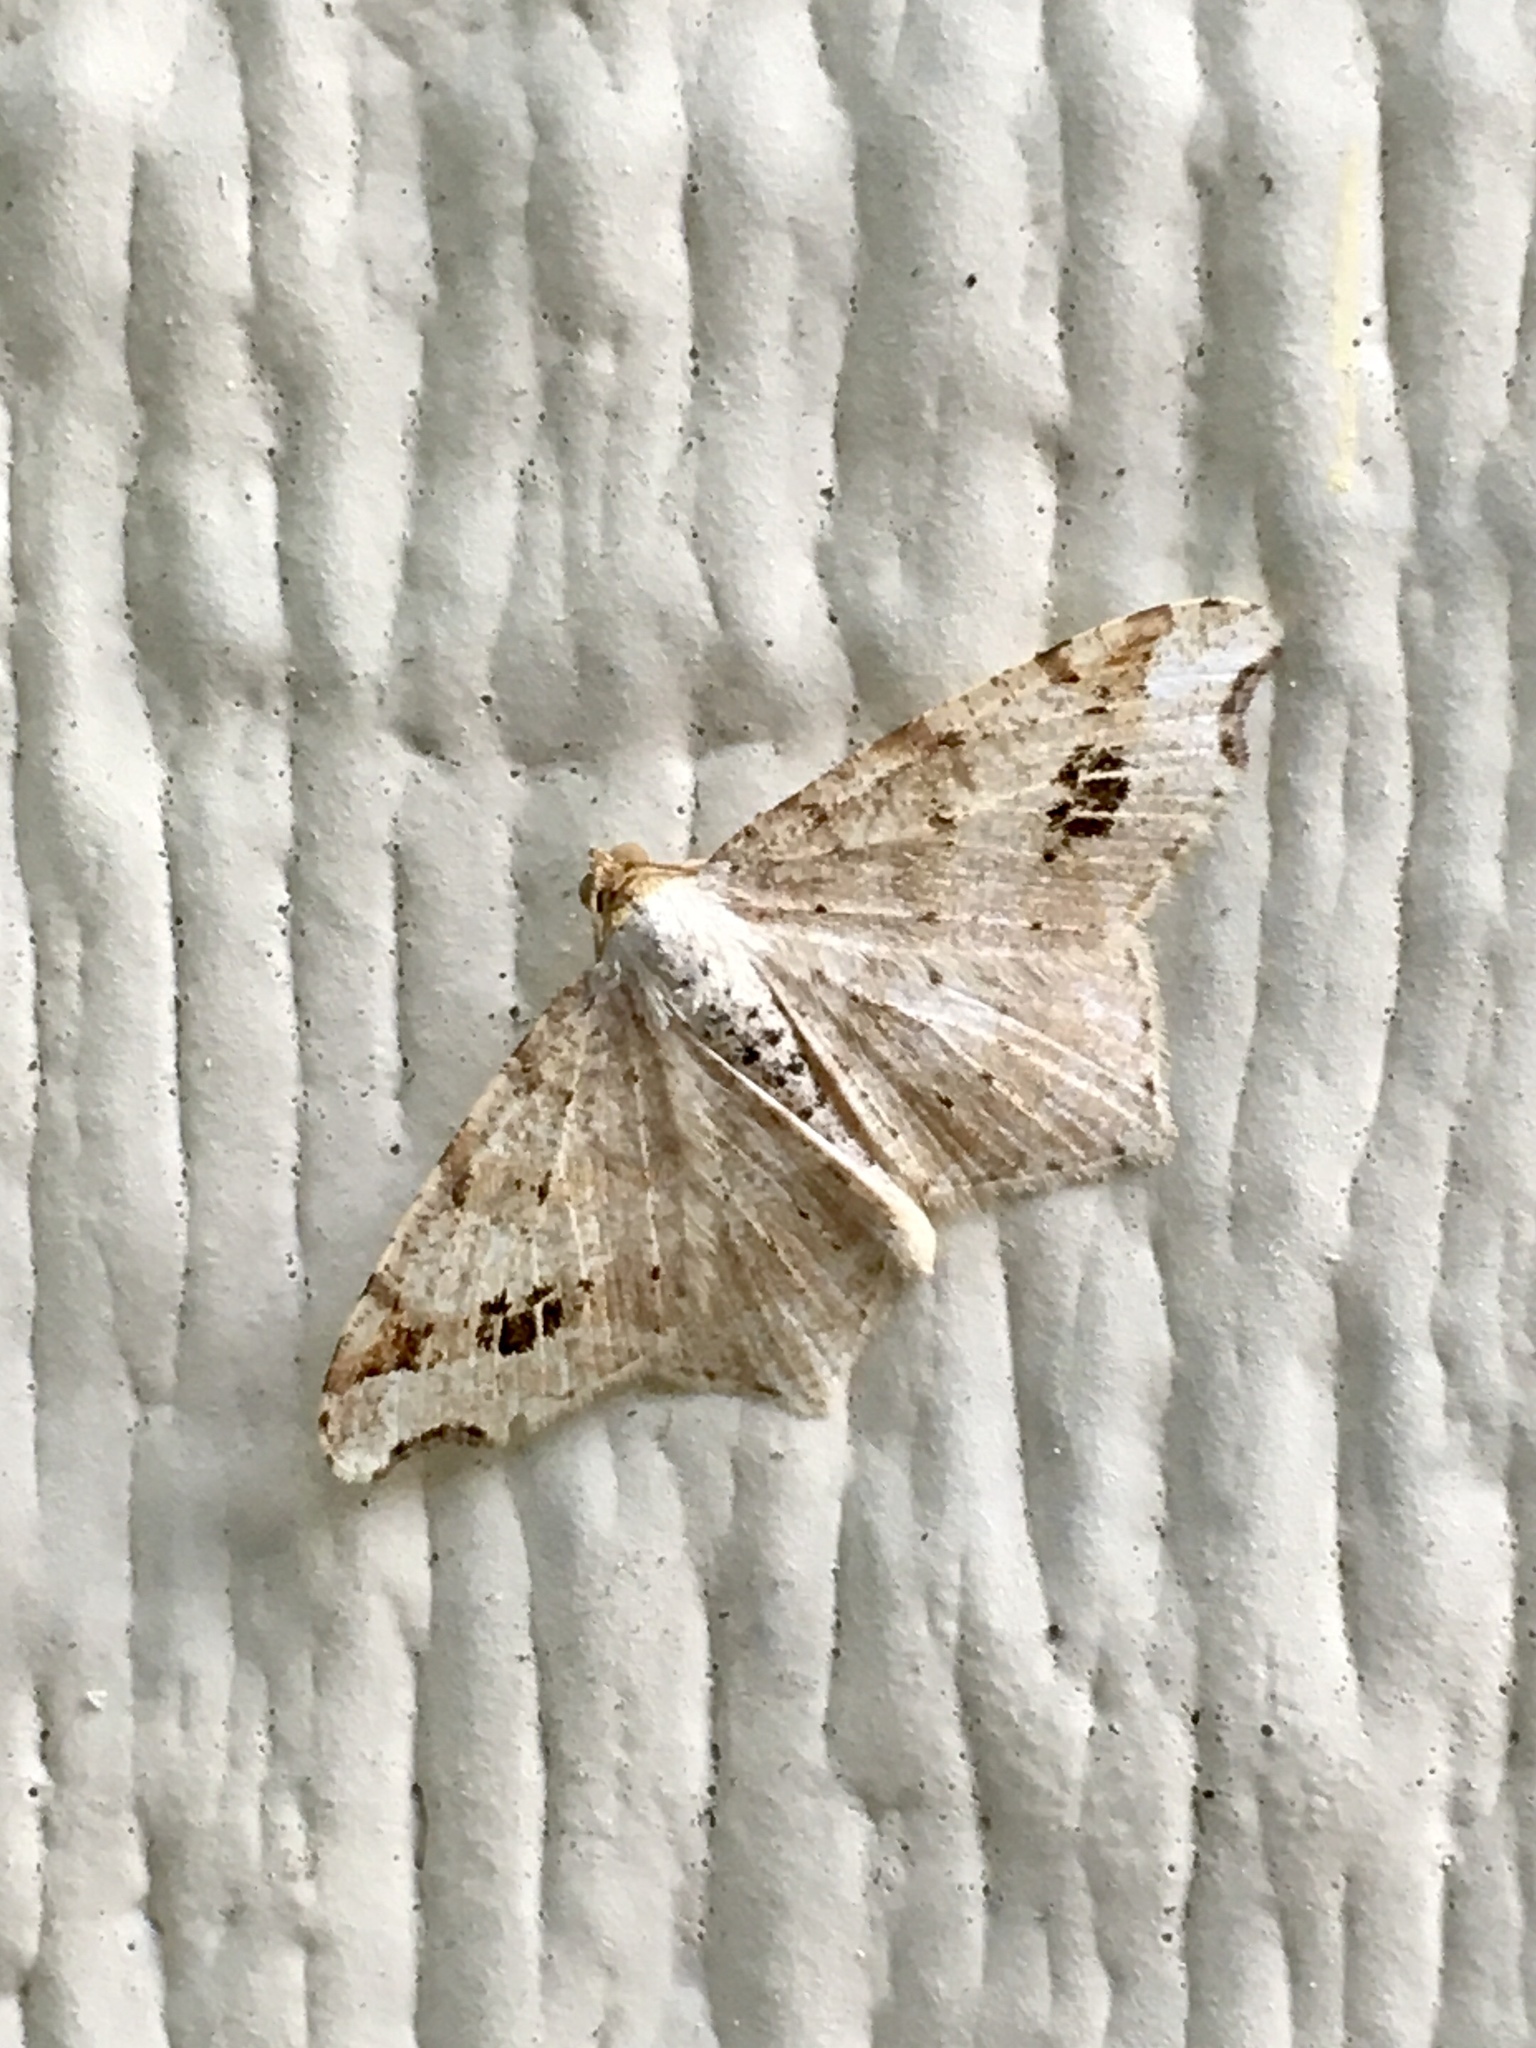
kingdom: Animalia
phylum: Arthropoda
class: Insecta
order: Lepidoptera
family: Geometridae
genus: Macaria
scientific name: Macaria aemulataria
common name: Common angle
